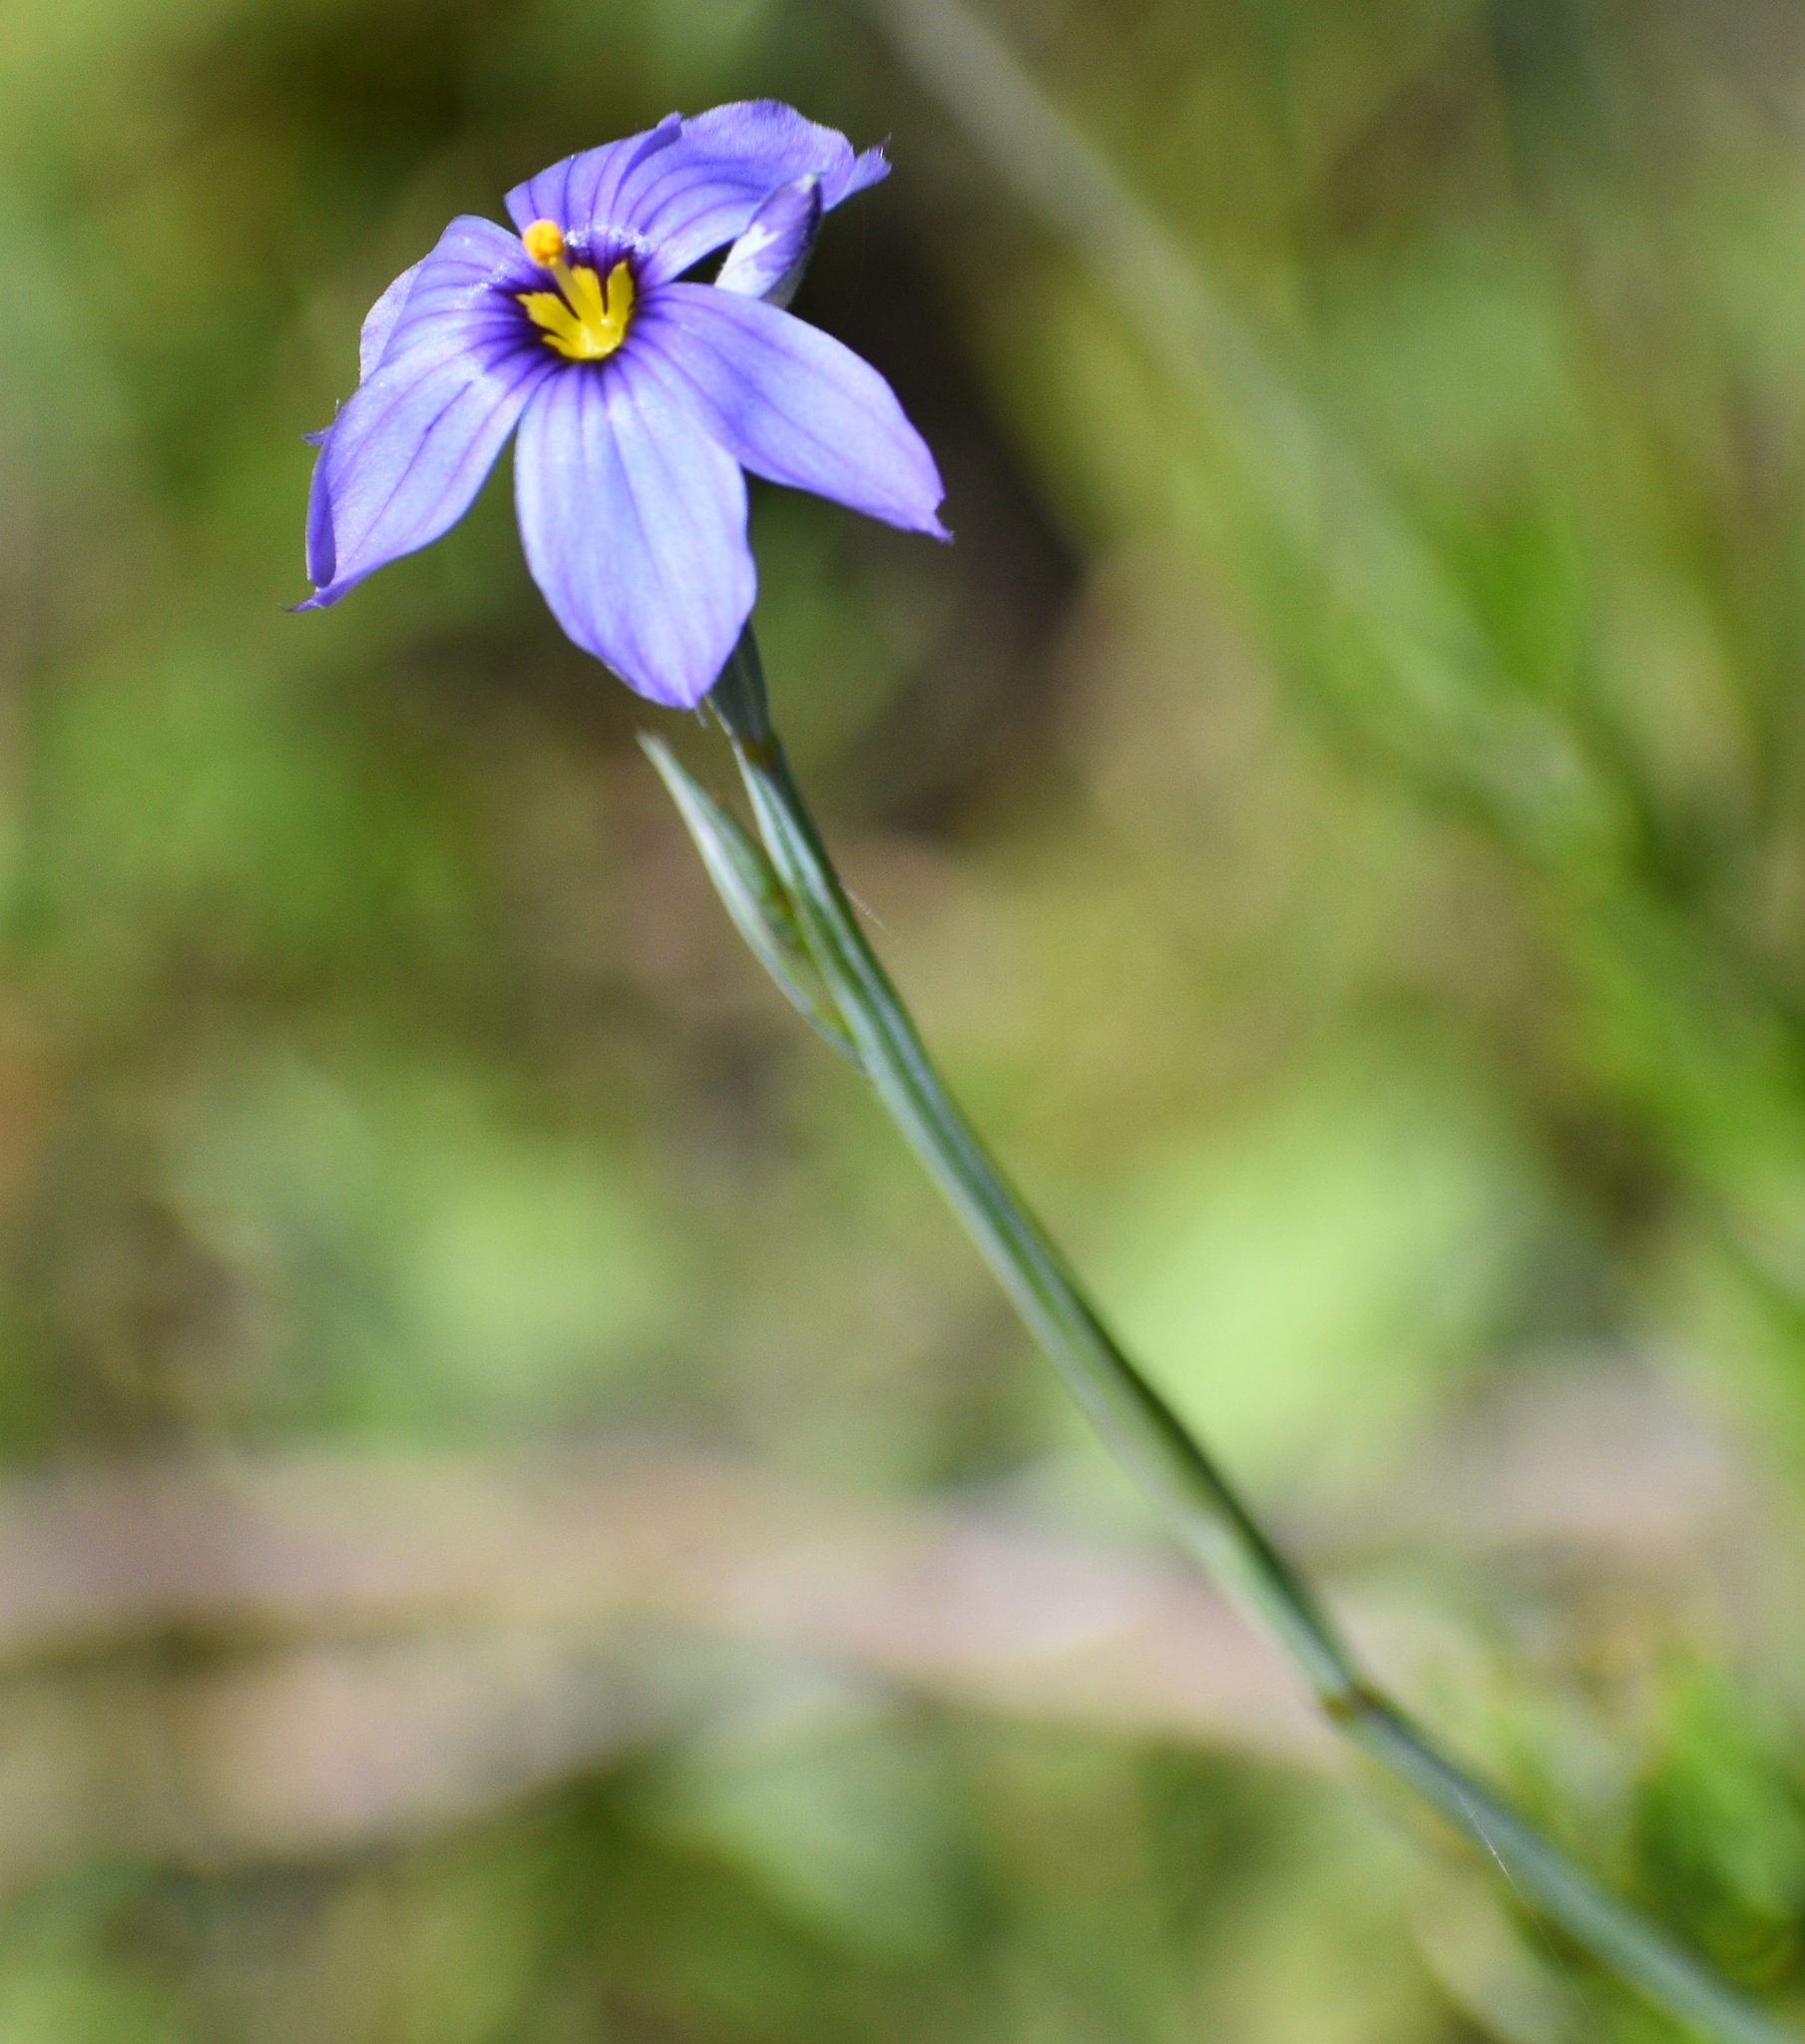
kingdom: Plantae
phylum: Tracheophyta
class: Liliopsida
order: Asparagales
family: Iridaceae
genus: Sisyrinchium
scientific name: Sisyrinchium bellum
